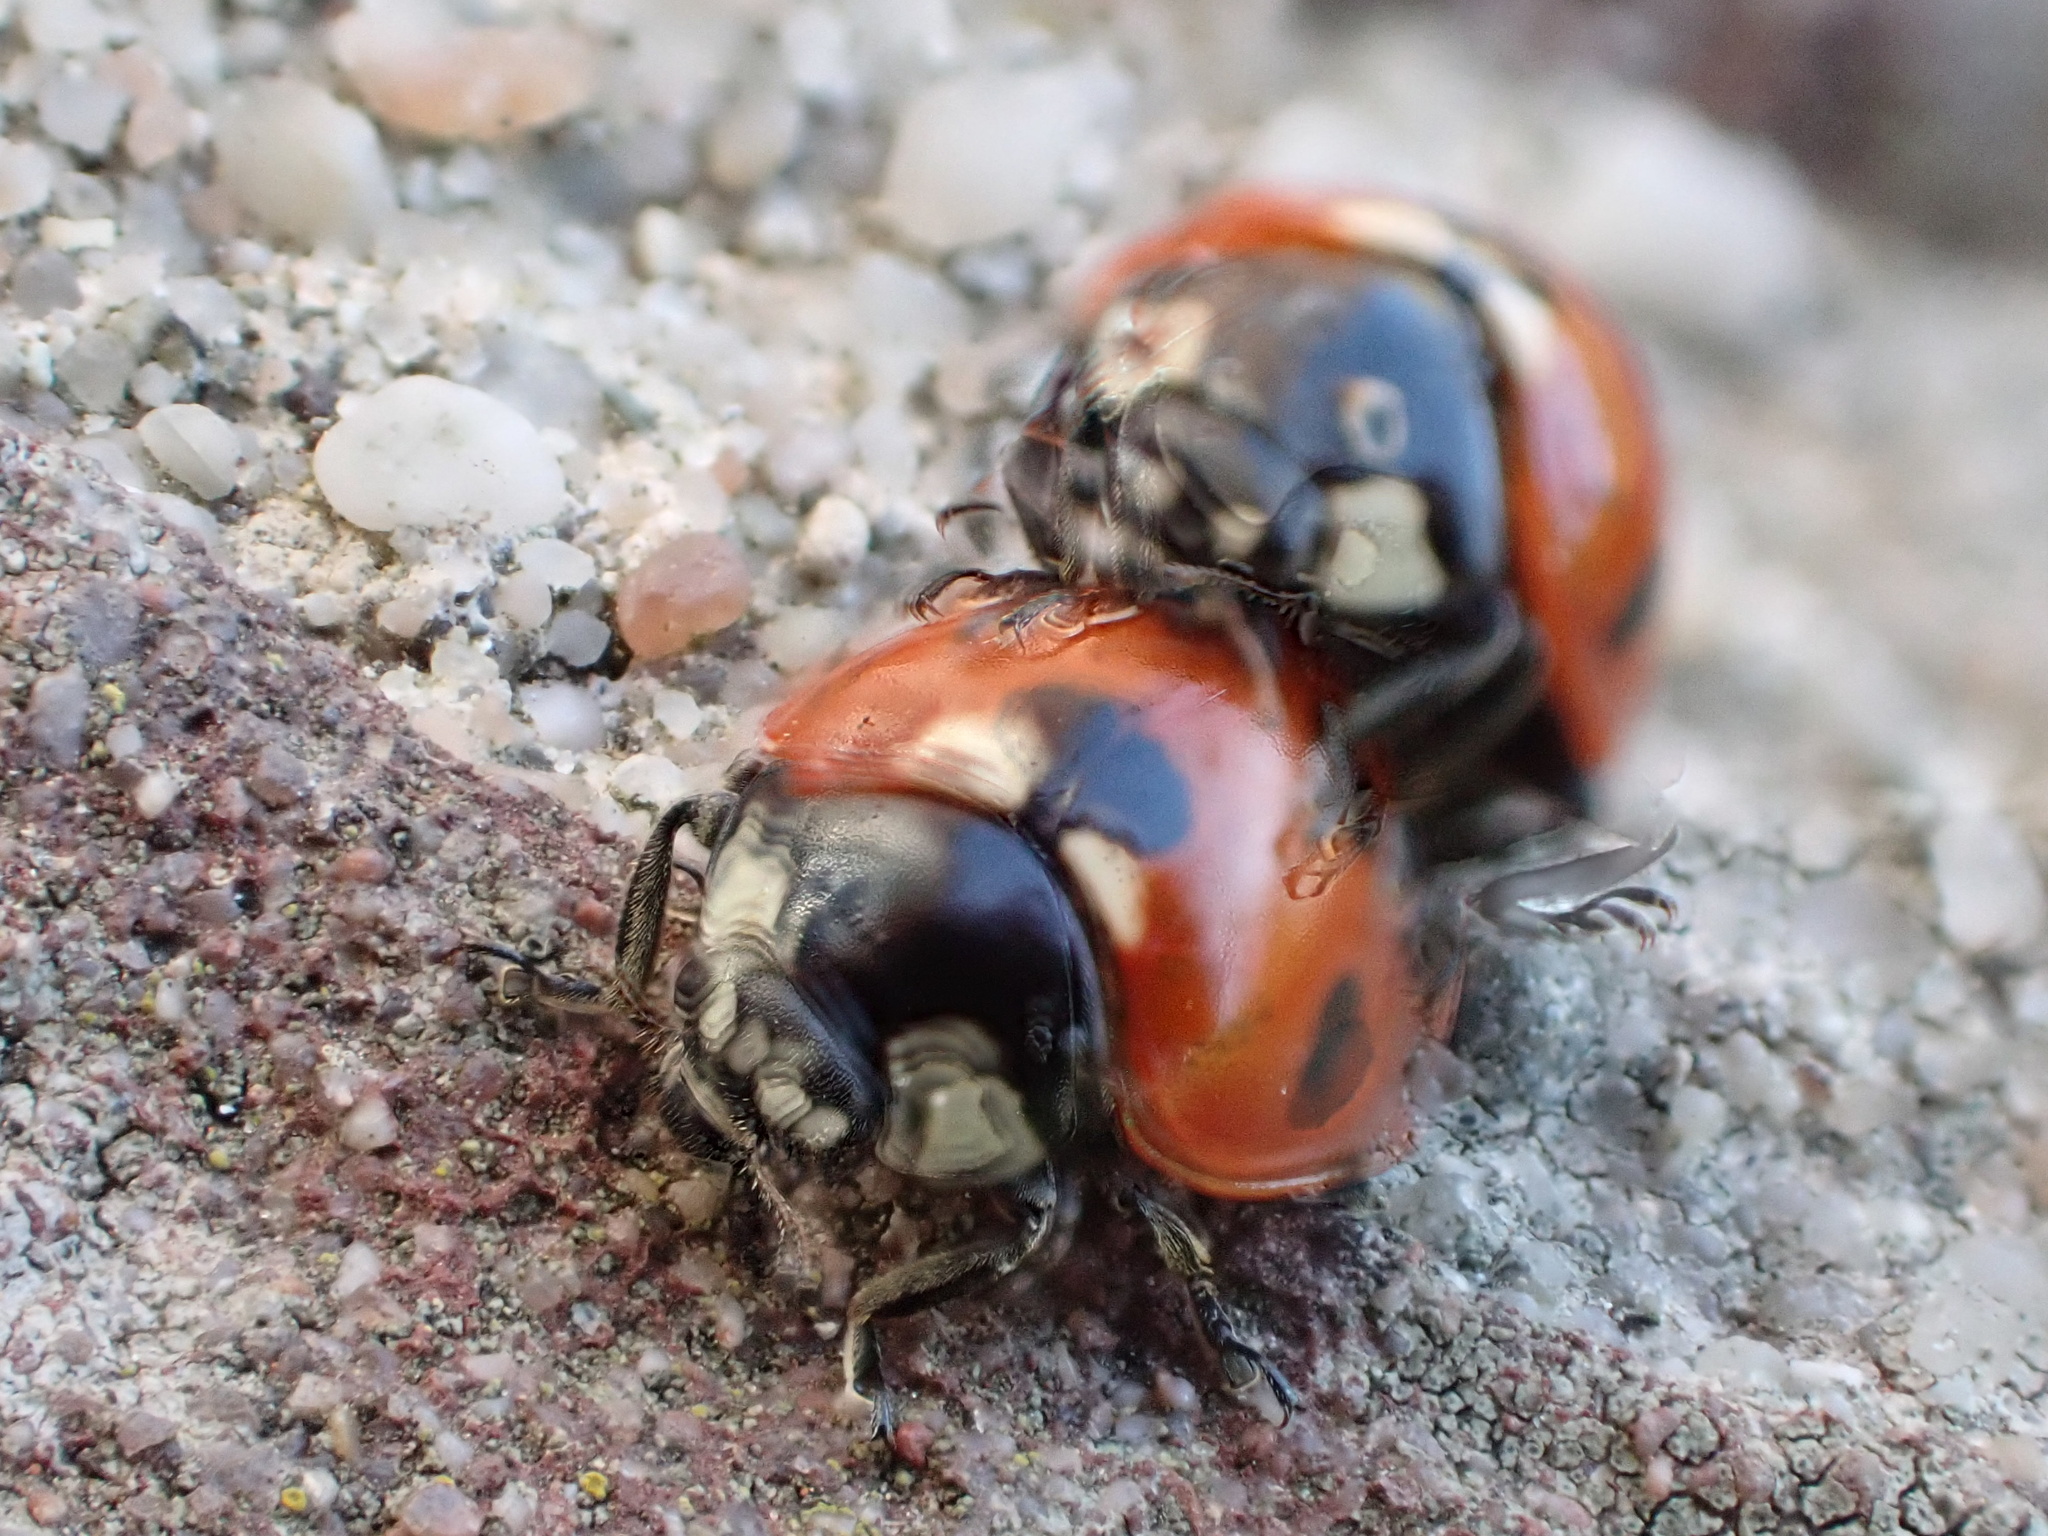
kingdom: Animalia
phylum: Arthropoda
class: Insecta
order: Coleoptera
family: Coccinellidae
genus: Coccinella
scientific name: Coccinella septempunctata
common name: Sevenspotted lady beetle
